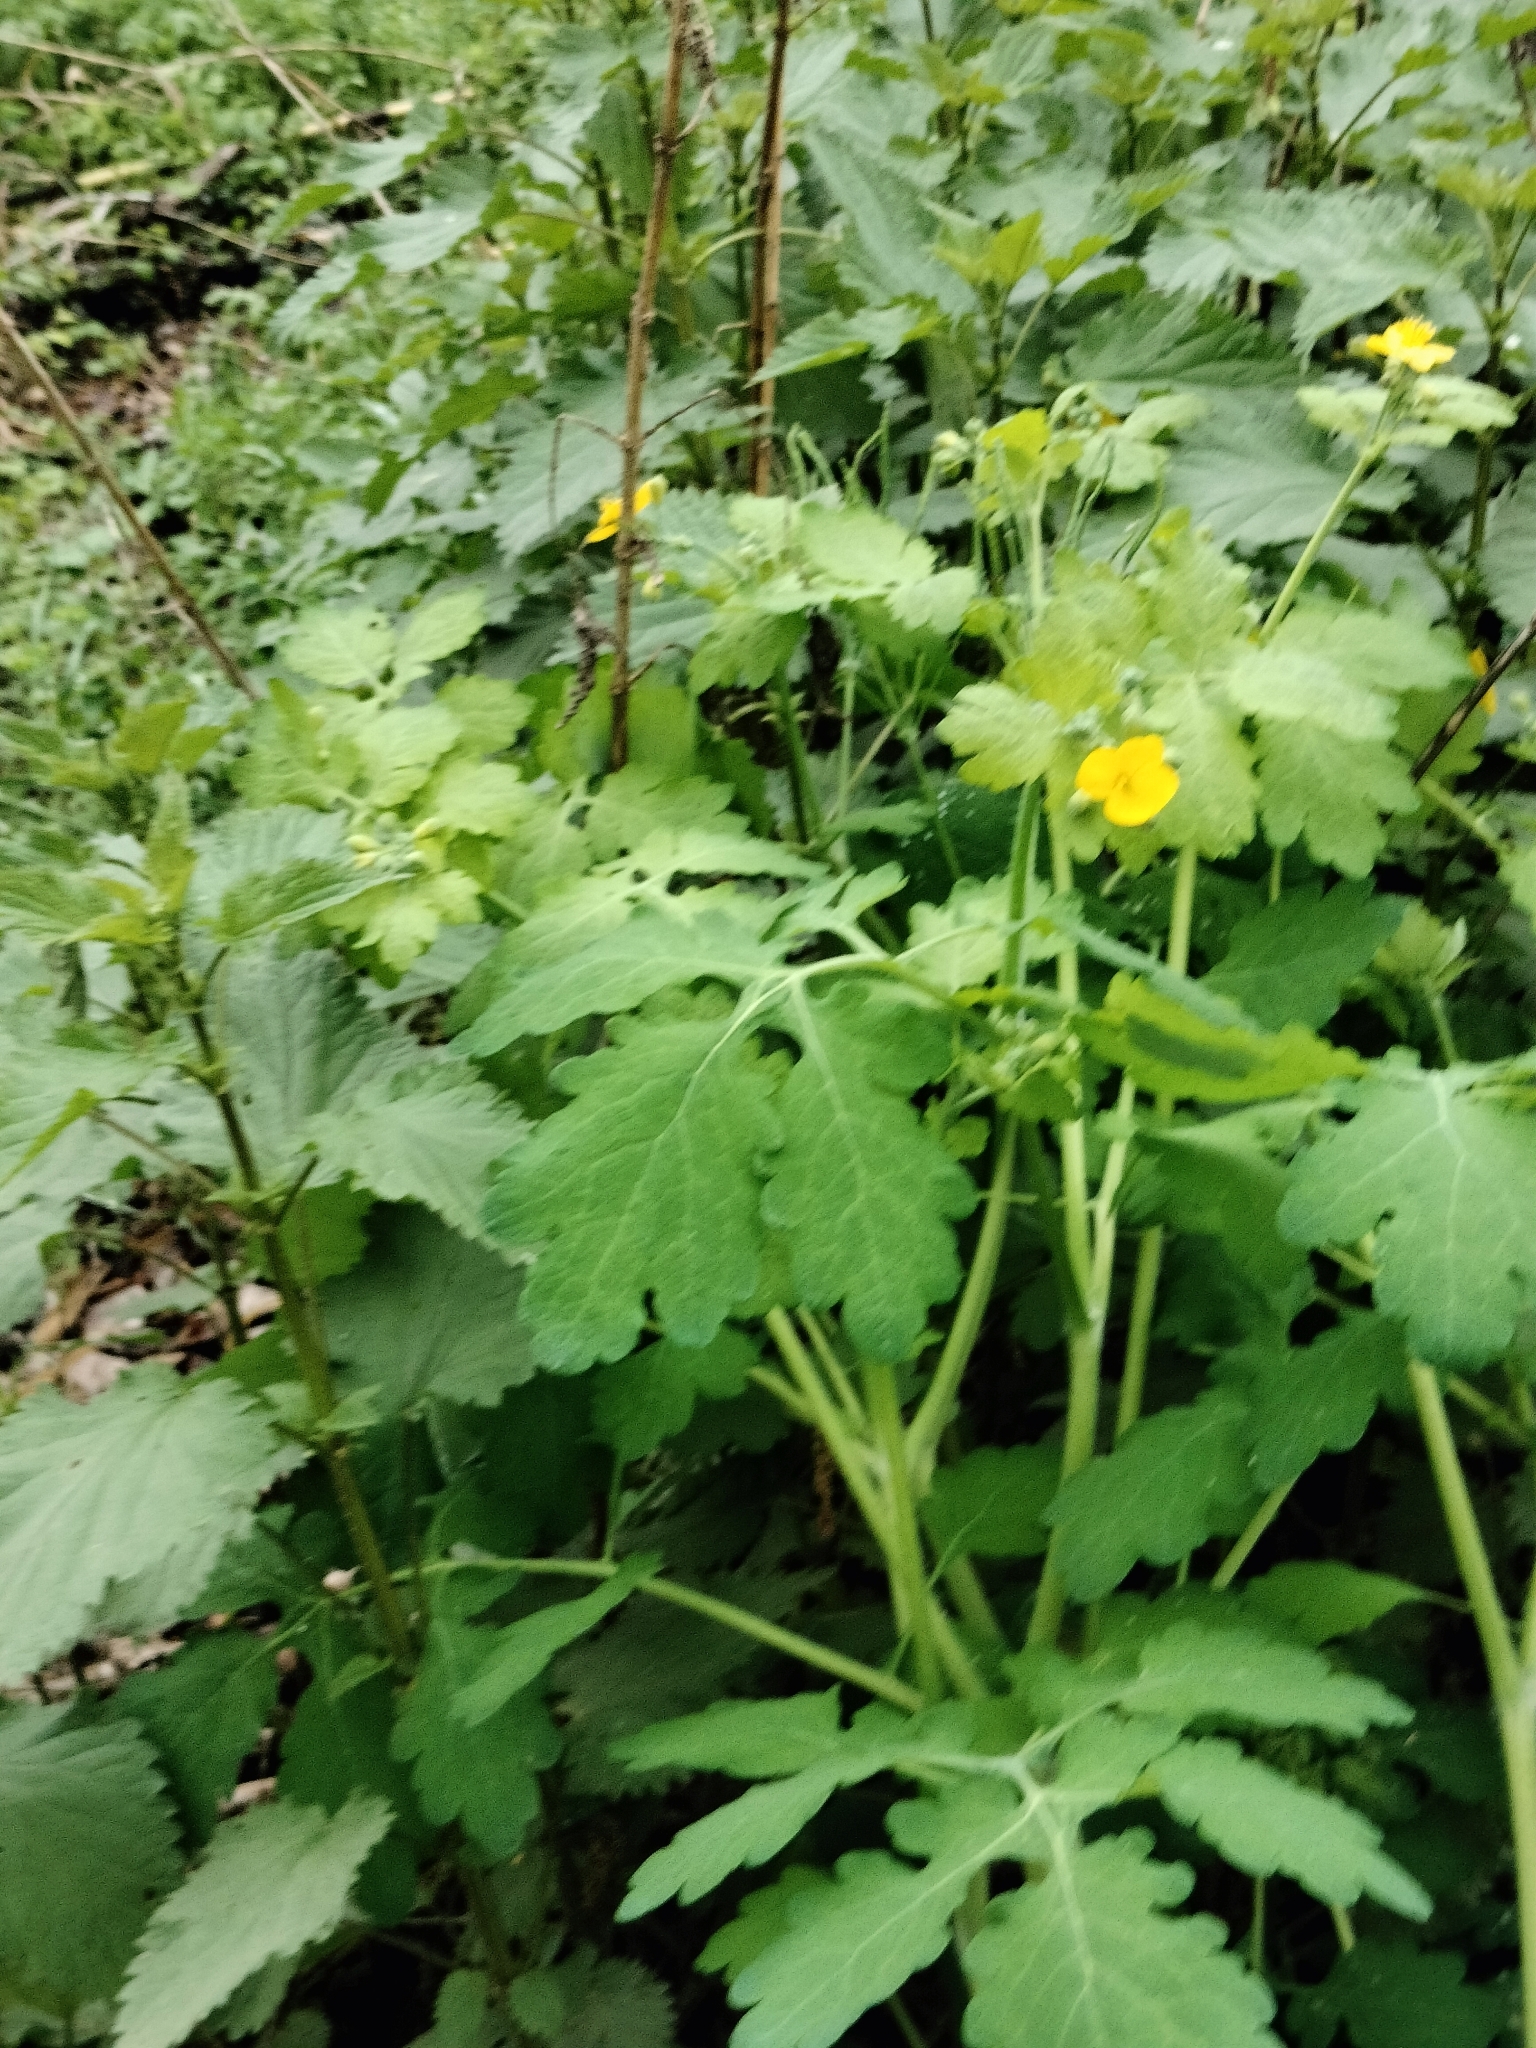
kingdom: Plantae
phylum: Tracheophyta
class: Magnoliopsida
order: Ranunculales
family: Papaveraceae
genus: Chelidonium
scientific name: Chelidonium majus
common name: Greater celandine
